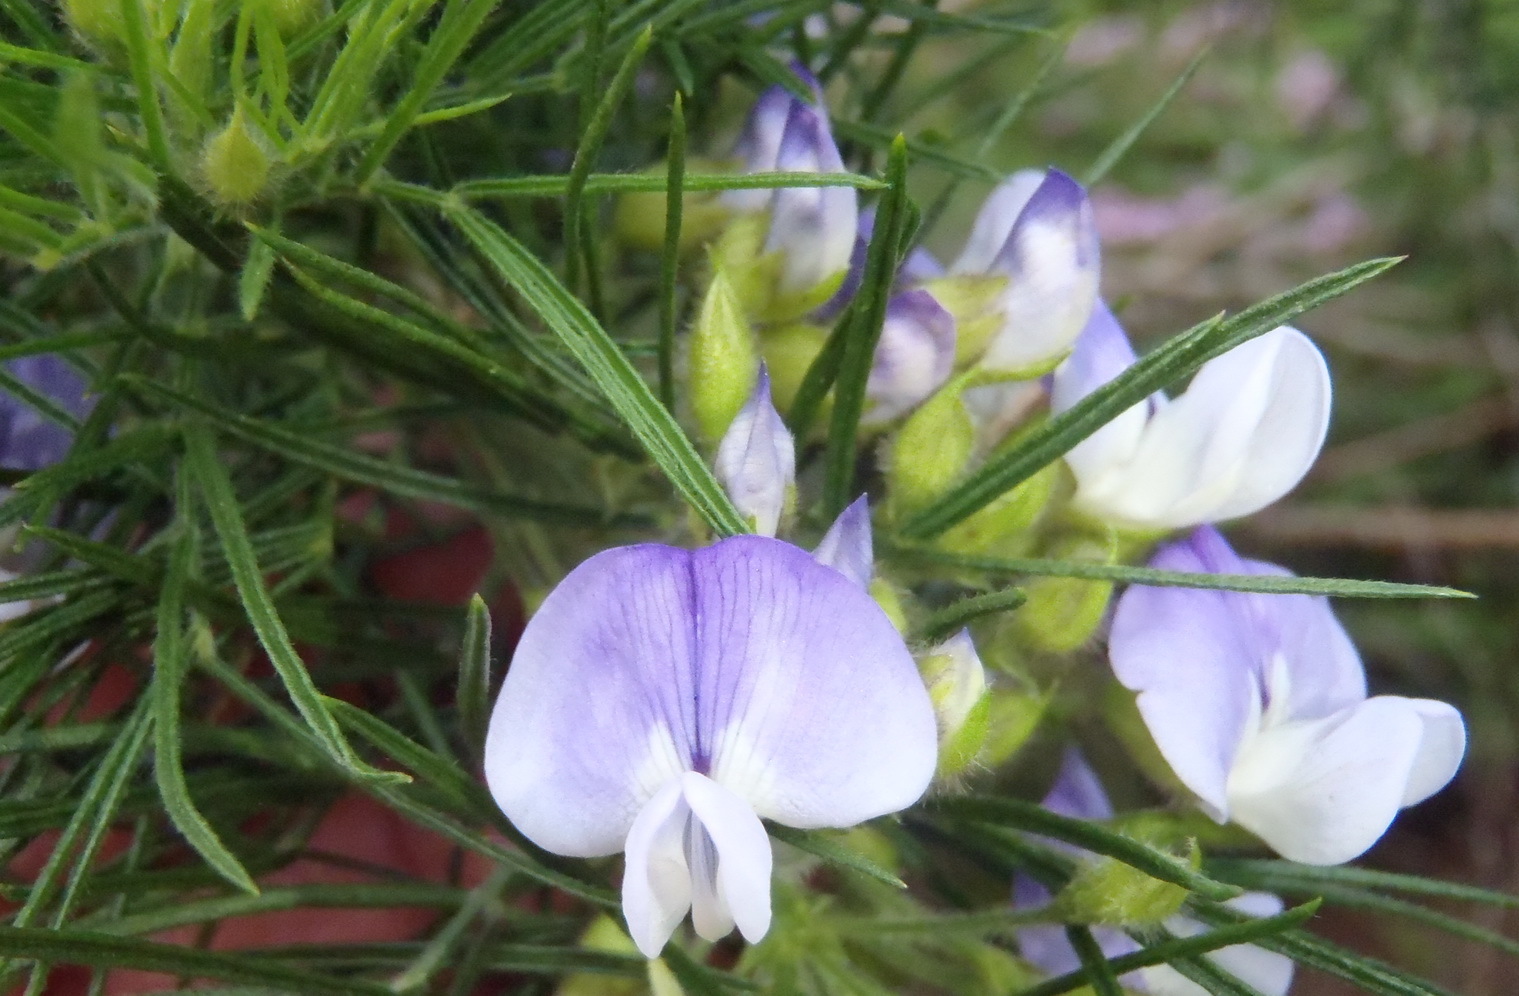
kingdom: Plantae
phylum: Tracheophyta
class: Magnoliopsida
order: Fabales
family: Fabaceae
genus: Psoralea
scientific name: Psoralea montana
